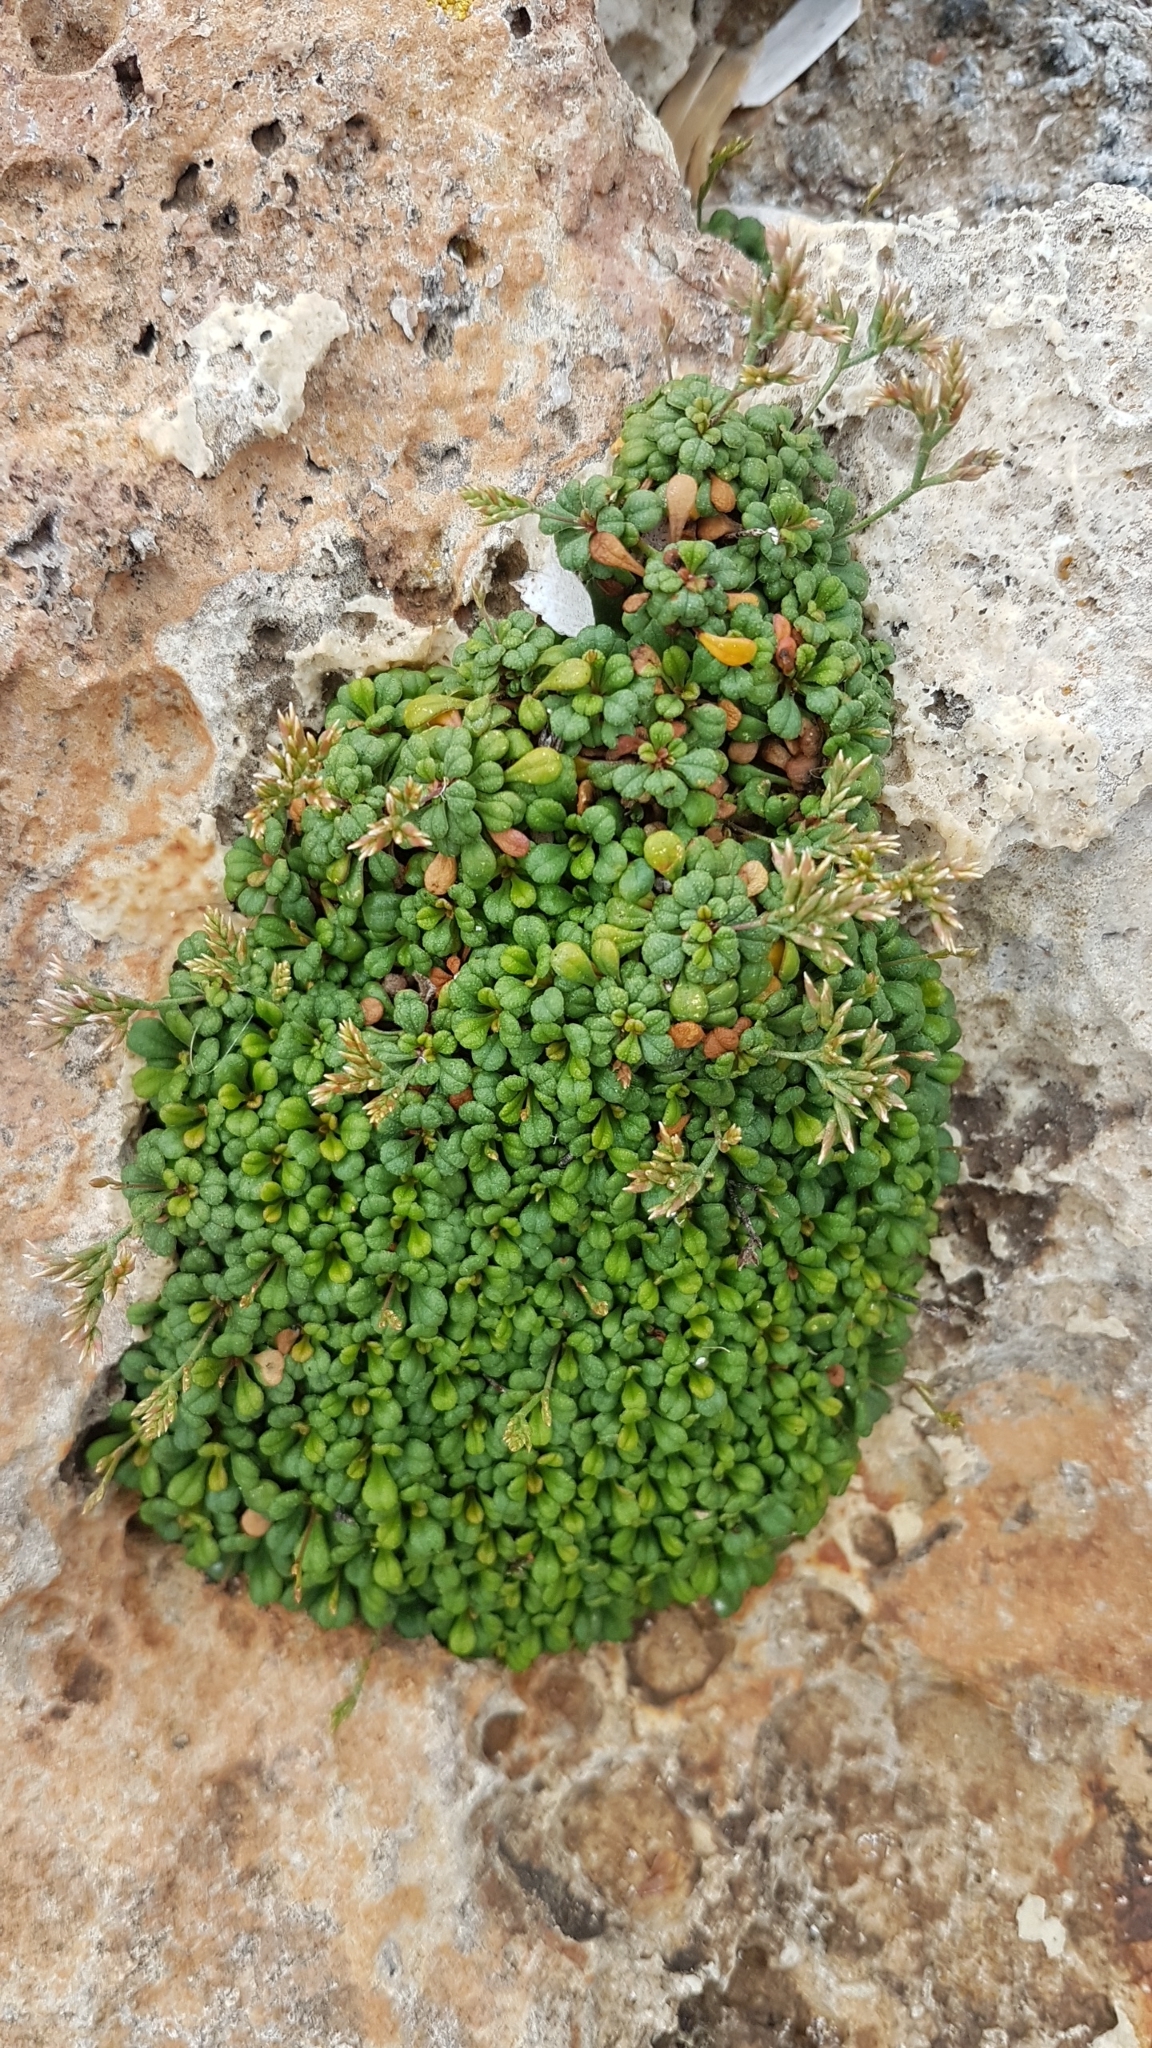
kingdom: Plantae
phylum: Tracheophyta
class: Magnoliopsida
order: Caryophyllales
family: Plumbaginaceae
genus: Limonium
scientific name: Limonium minutum
